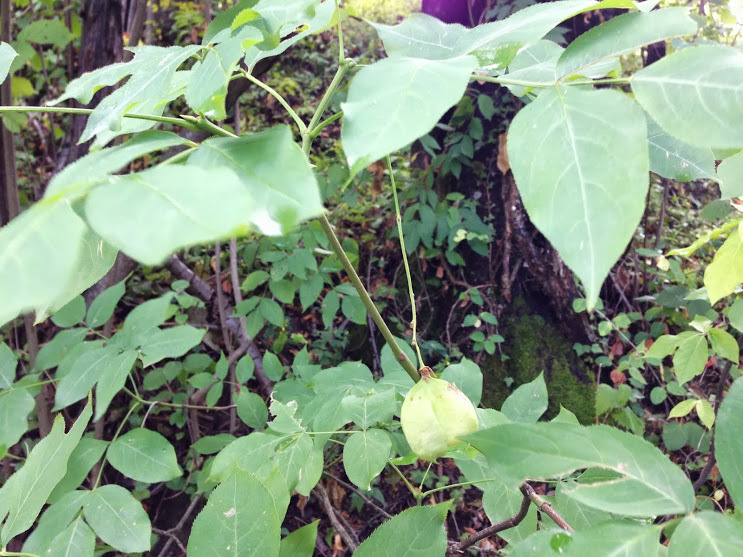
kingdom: Plantae
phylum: Tracheophyta
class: Magnoliopsida
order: Crossosomatales
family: Staphyleaceae
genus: Staphylea
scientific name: Staphylea pinnata
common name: Bladdernut
